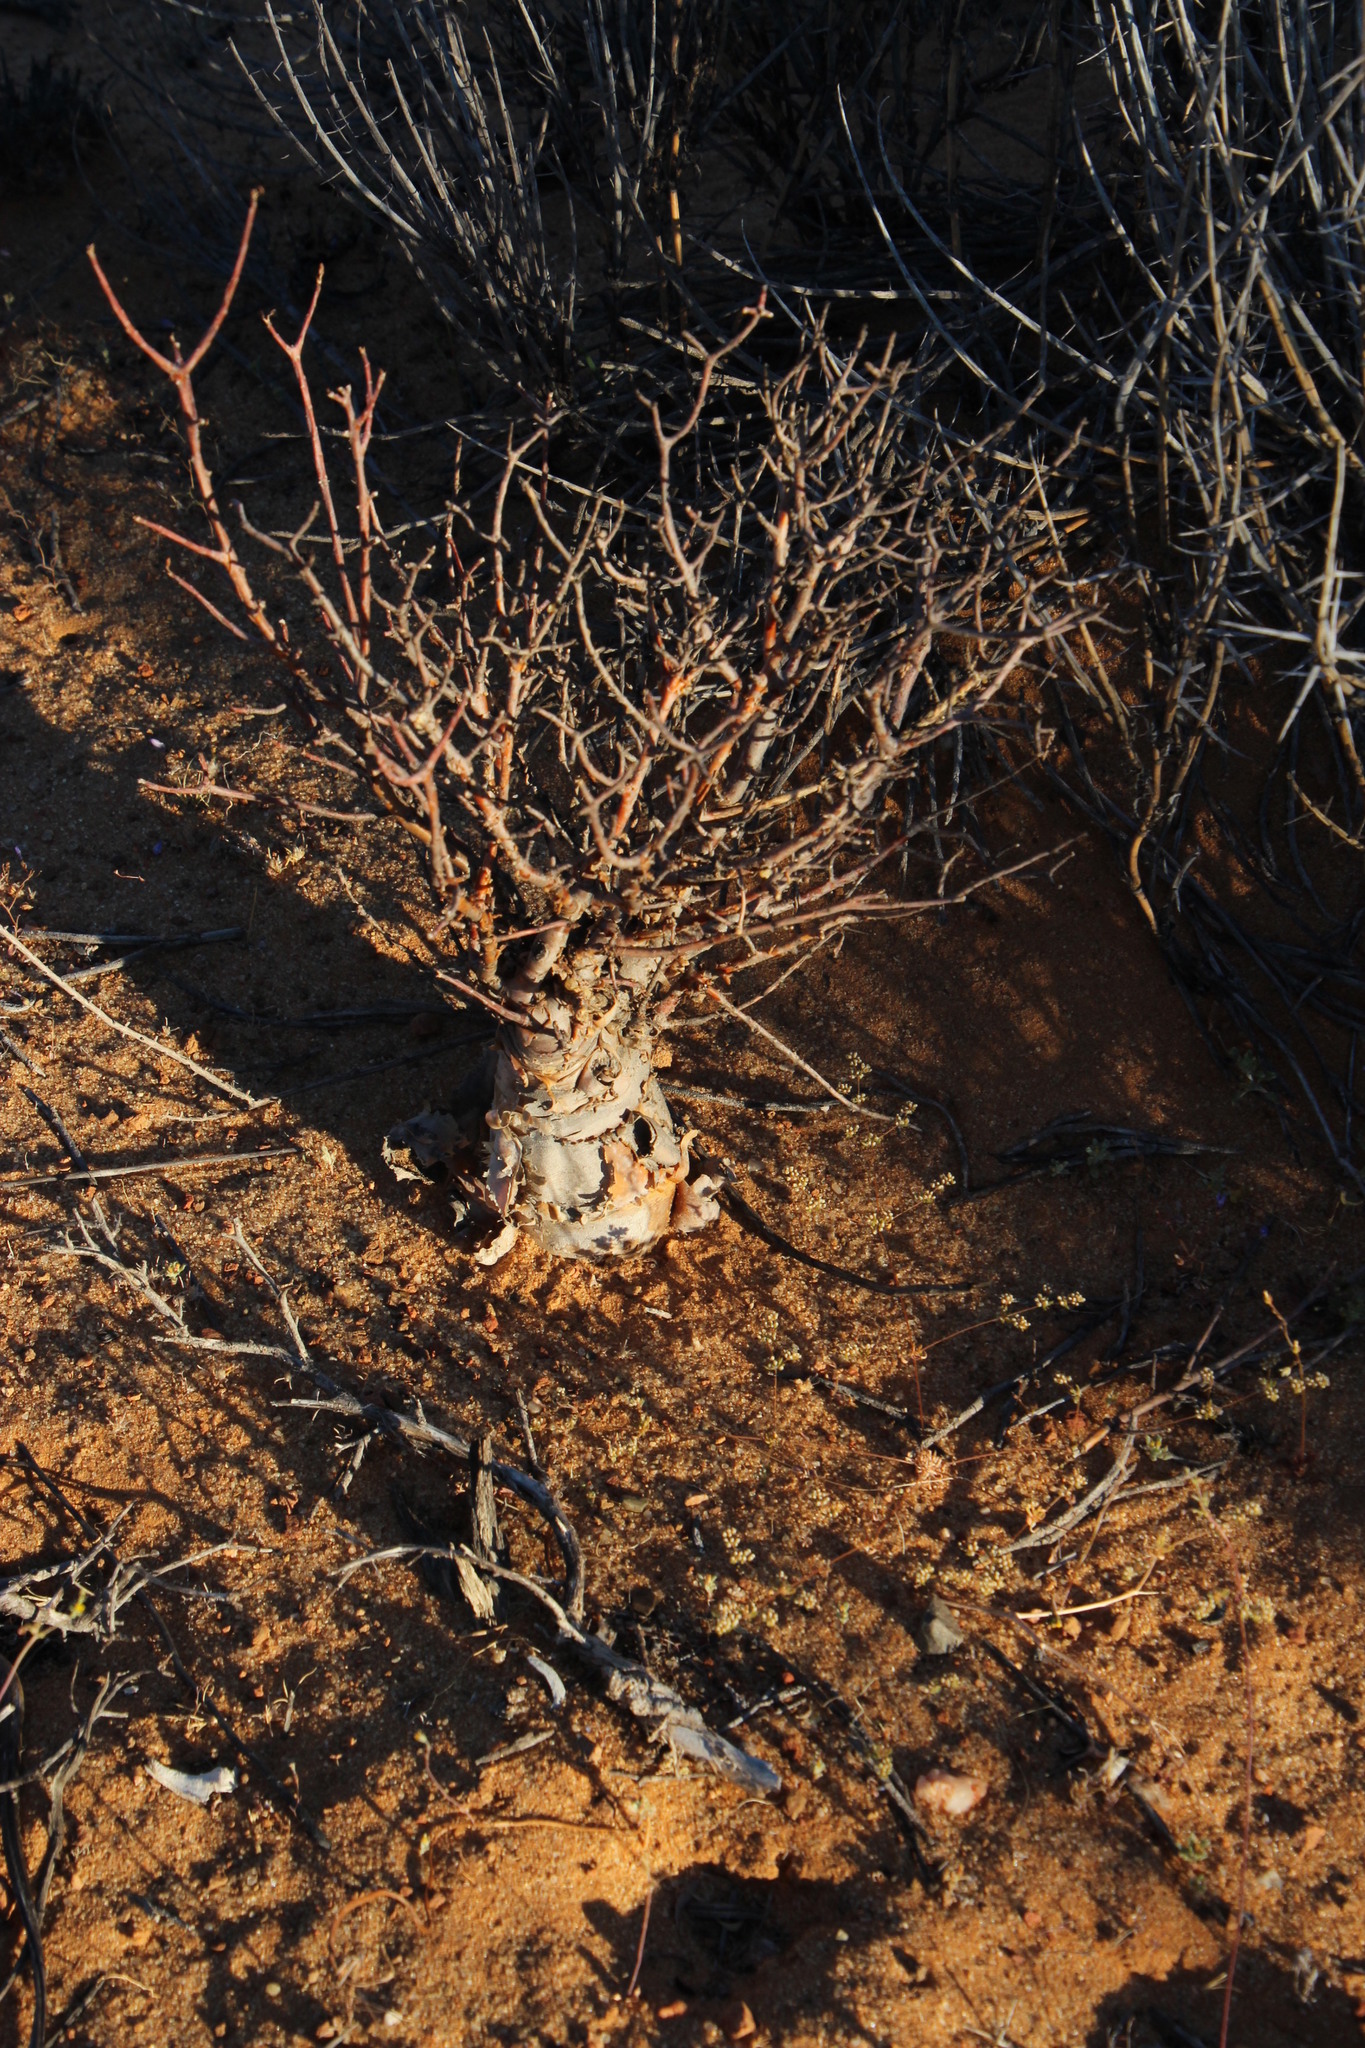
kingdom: Plantae
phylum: Tracheophyta
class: Magnoliopsida
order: Caryophyllales
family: Aizoaceae
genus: Delosperma
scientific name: Delosperma acocksii
